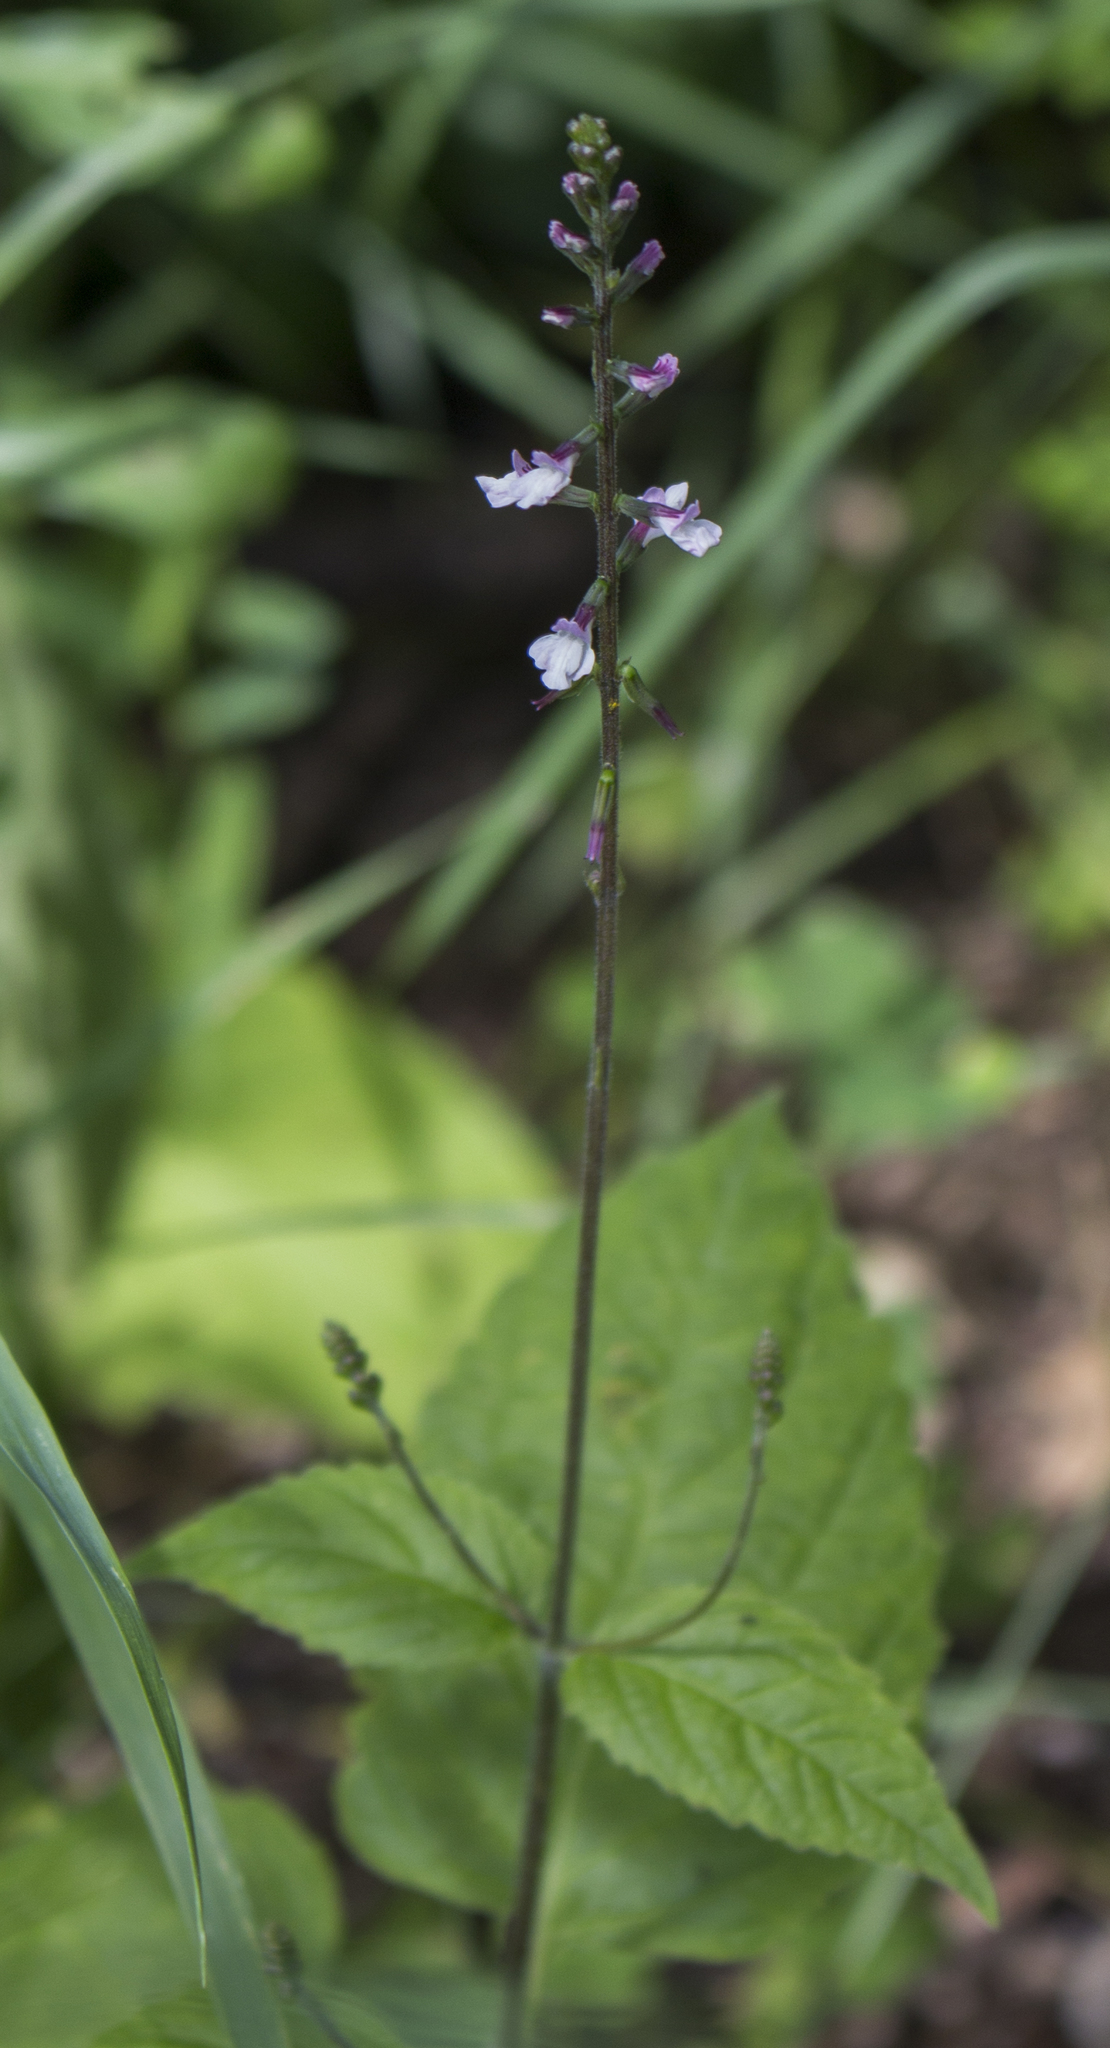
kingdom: Plantae
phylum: Tracheophyta
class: Magnoliopsida
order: Lamiales
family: Phrymaceae
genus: Phryma
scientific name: Phryma leptostachya
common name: American lopseed
